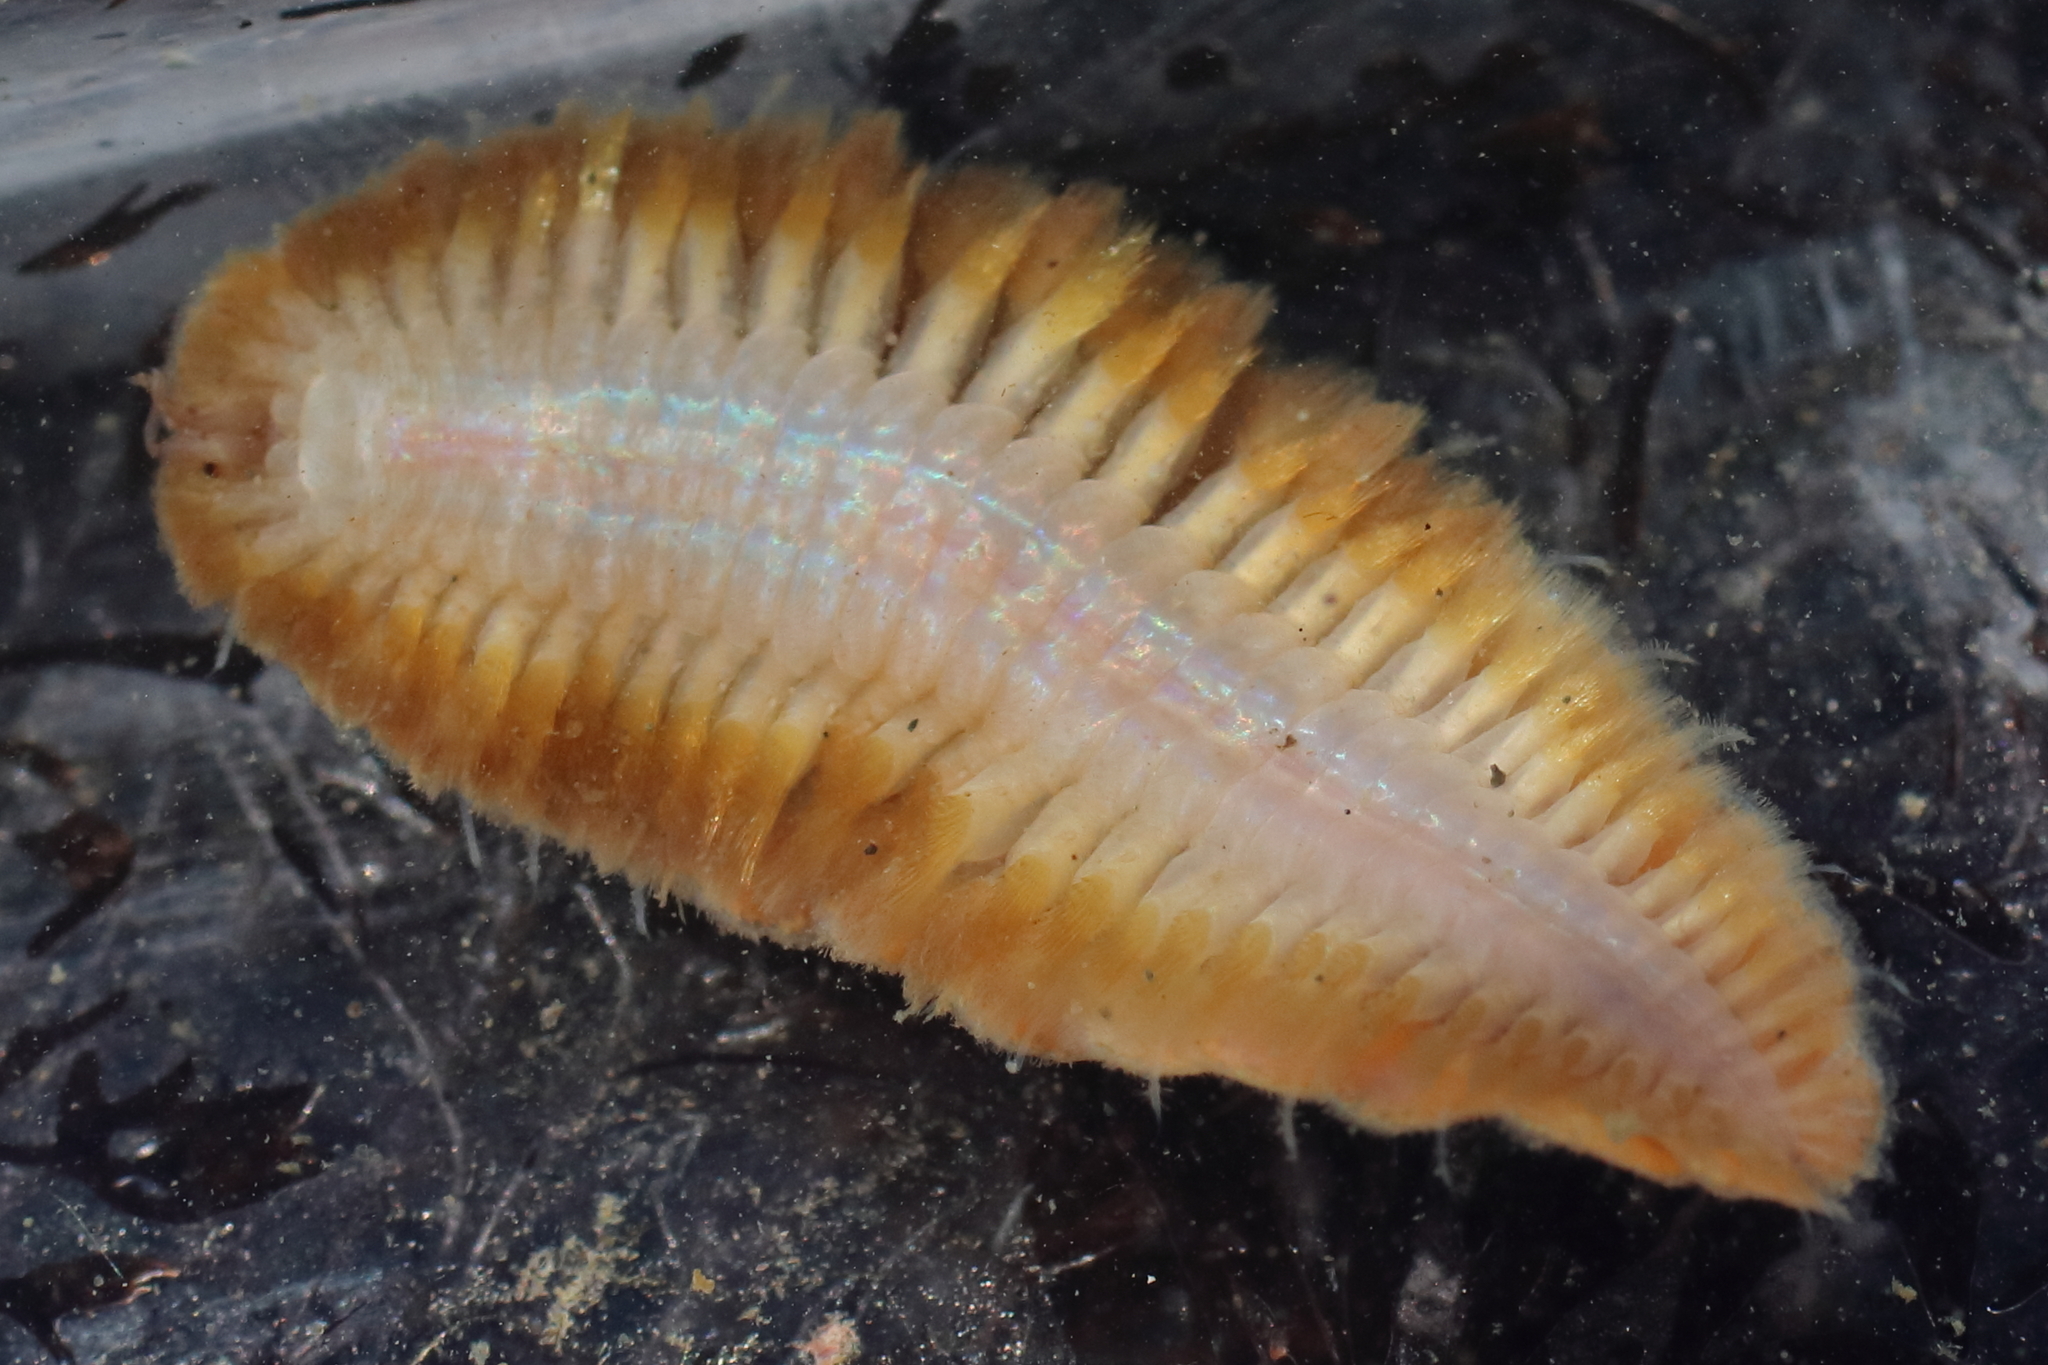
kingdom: Animalia
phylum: Annelida
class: Polychaeta
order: Phyllodocida
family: Polynoidae
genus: Gaudichaudius
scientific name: Gaudichaudius iphionelloides
